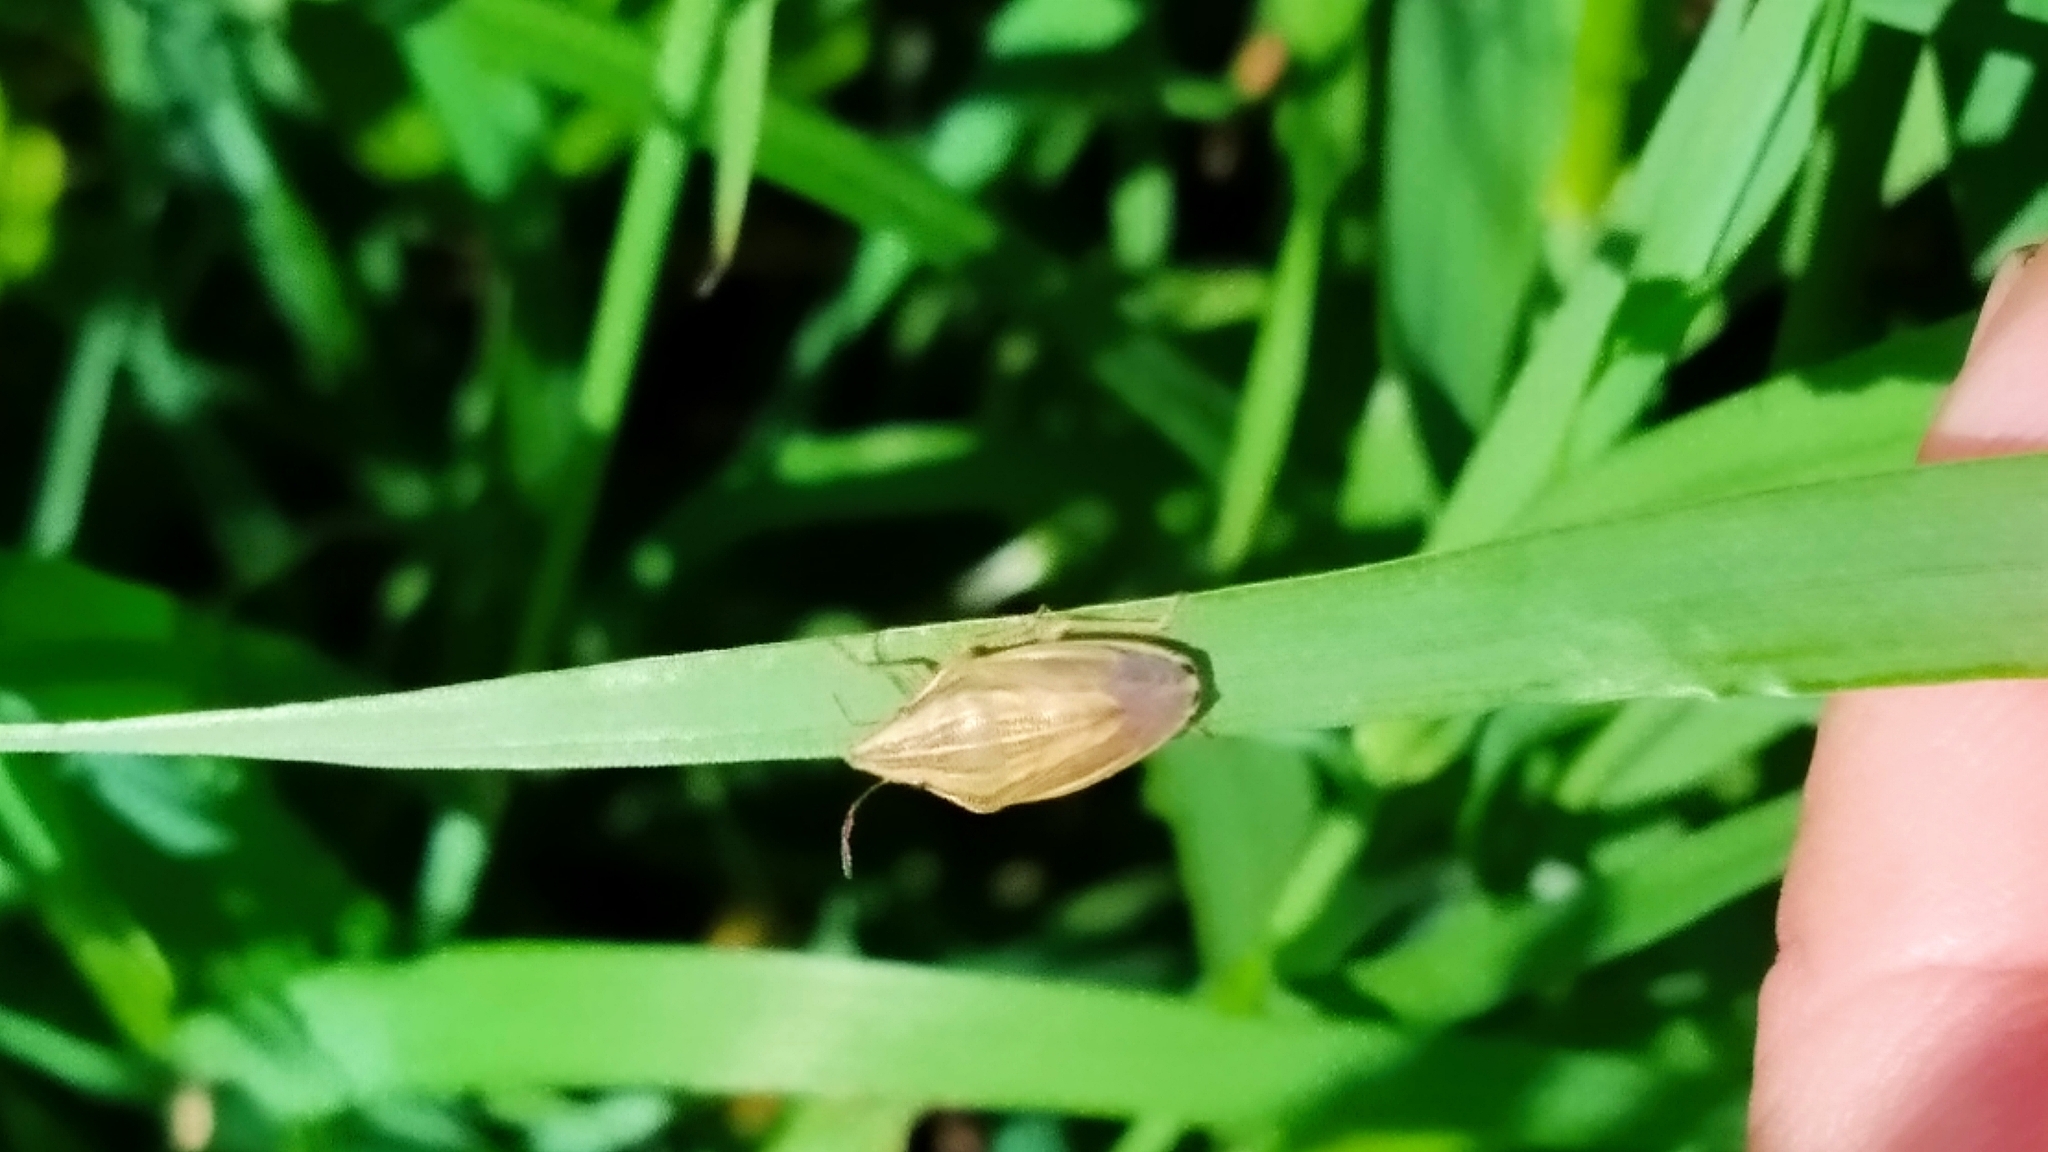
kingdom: Animalia
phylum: Arthropoda
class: Insecta
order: Hemiptera
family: Pentatomidae
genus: Aelia
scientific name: Aelia acuminata
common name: Bishop's mitre
